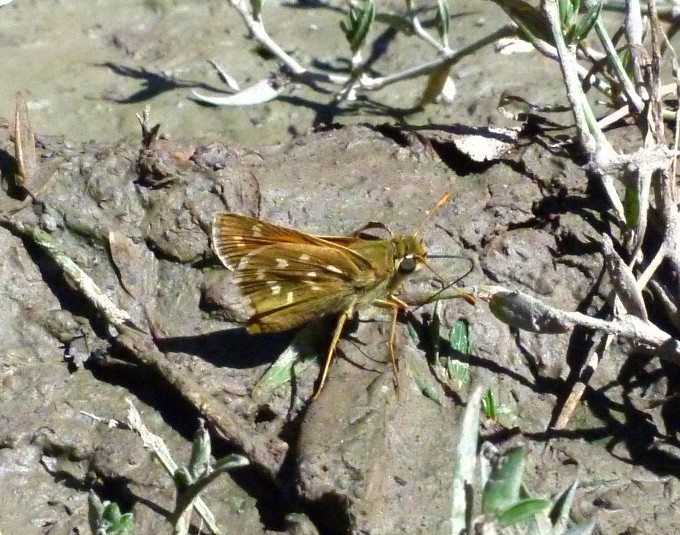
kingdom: Animalia
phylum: Arthropoda
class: Insecta
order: Lepidoptera
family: Hesperiidae
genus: Hesperia
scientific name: Hesperia comma
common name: Common branded skipper
